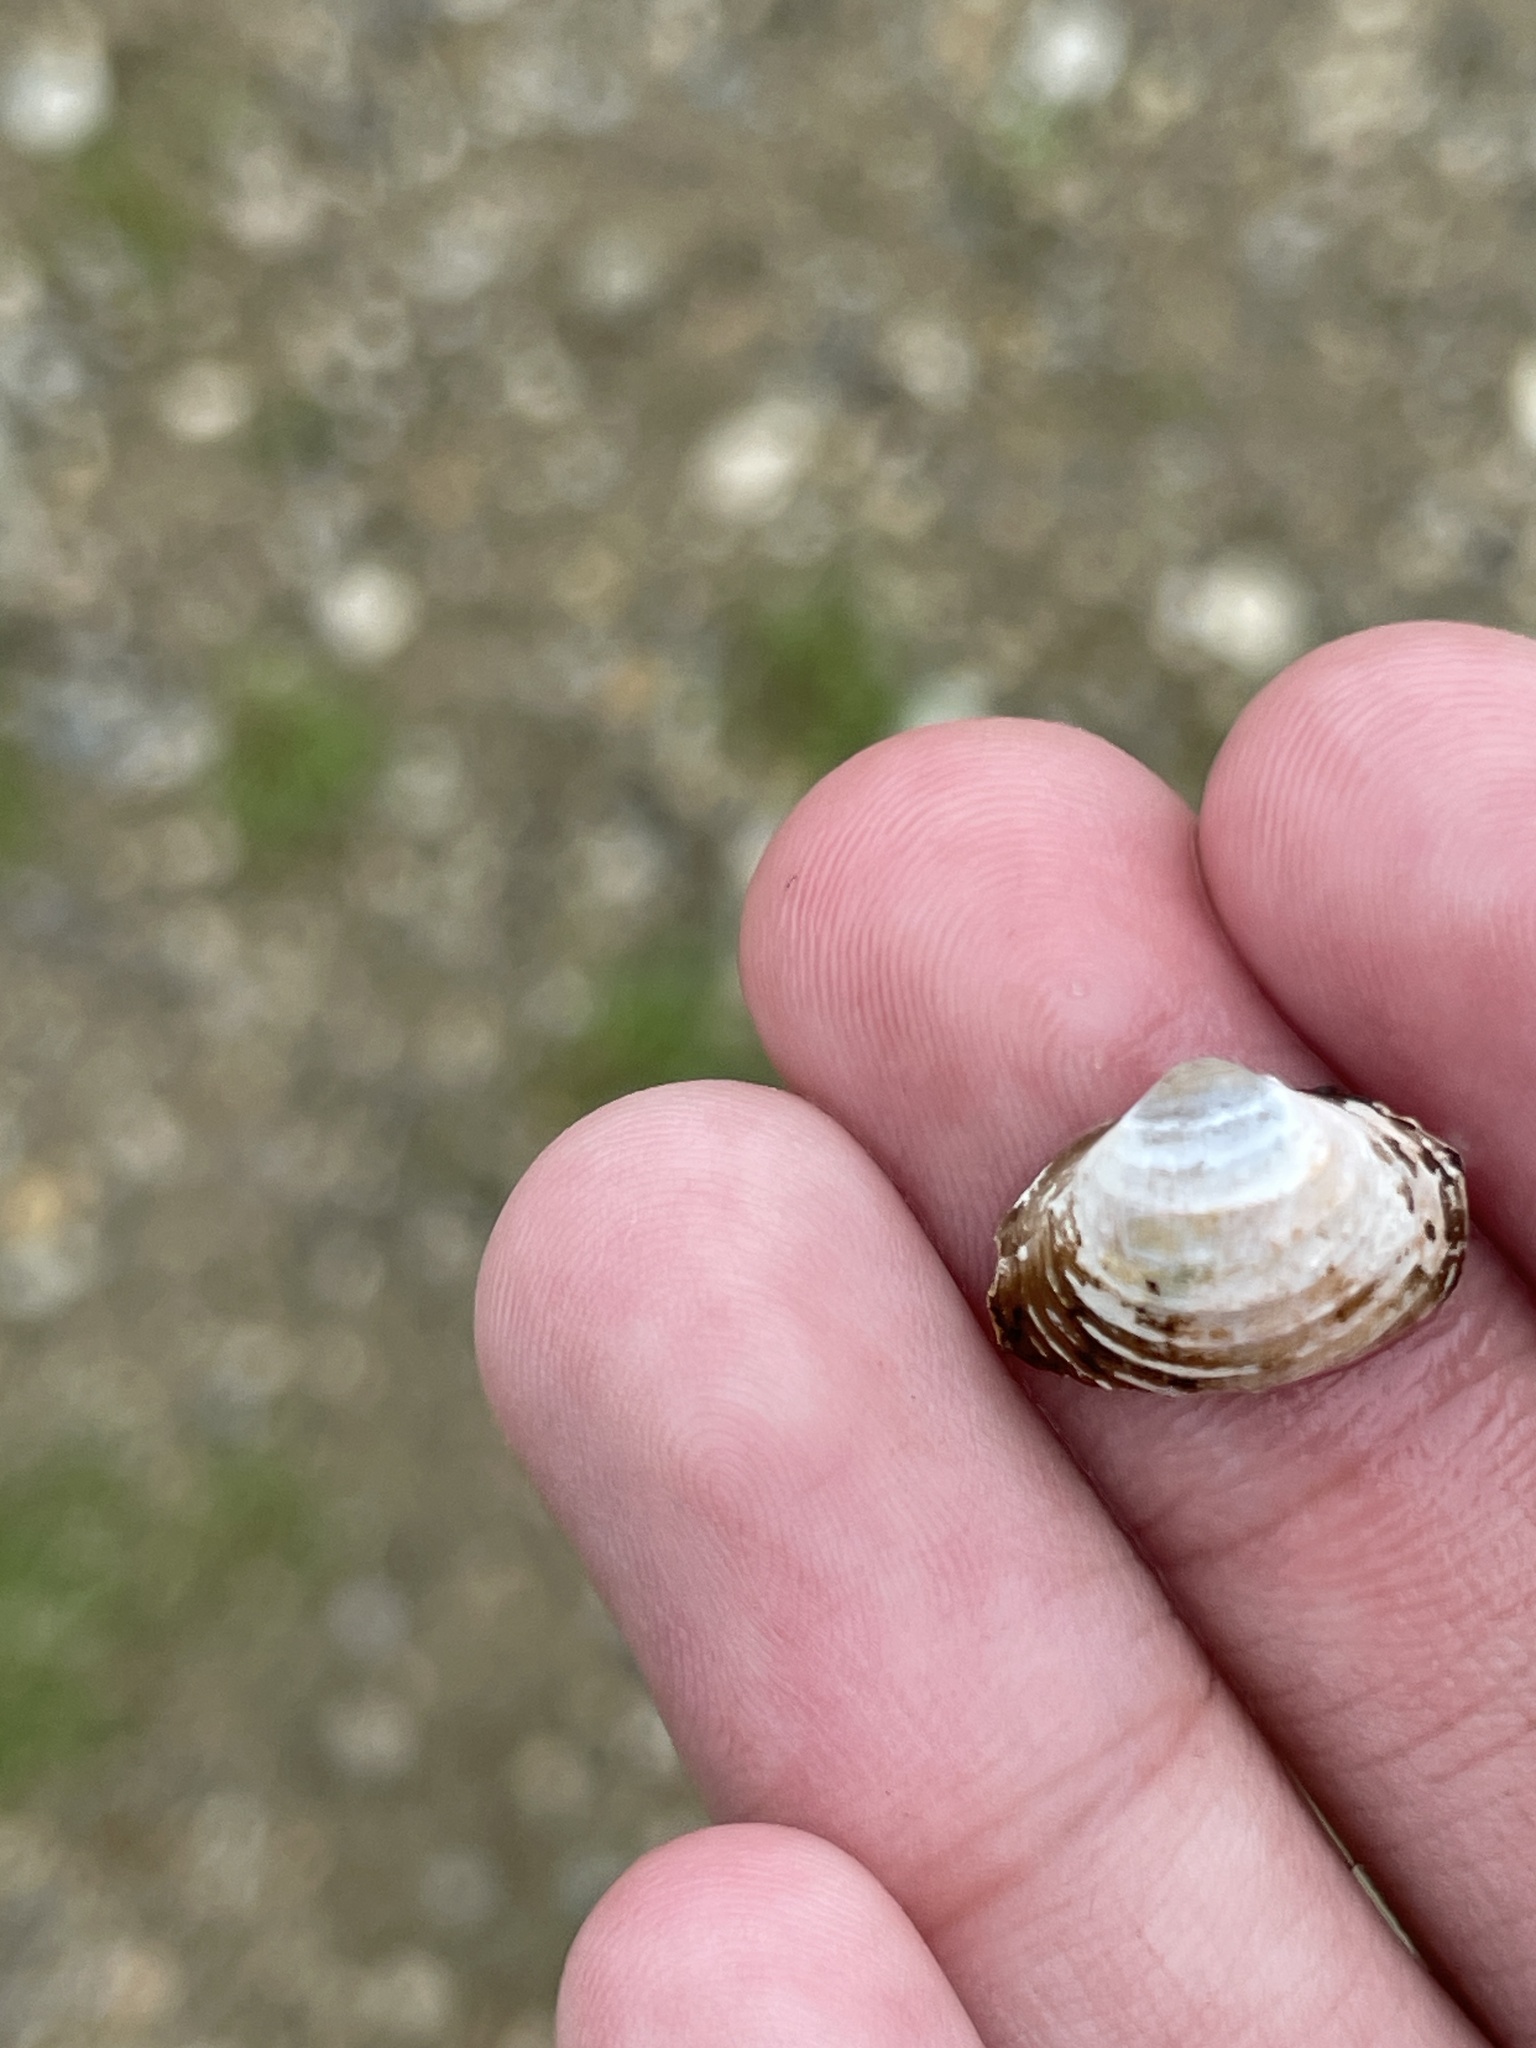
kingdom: Animalia
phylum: Mollusca
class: Bivalvia
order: Venerida
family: Cyrenidae
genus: Corbicula
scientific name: Corbicula fluminea
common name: Asian clam
